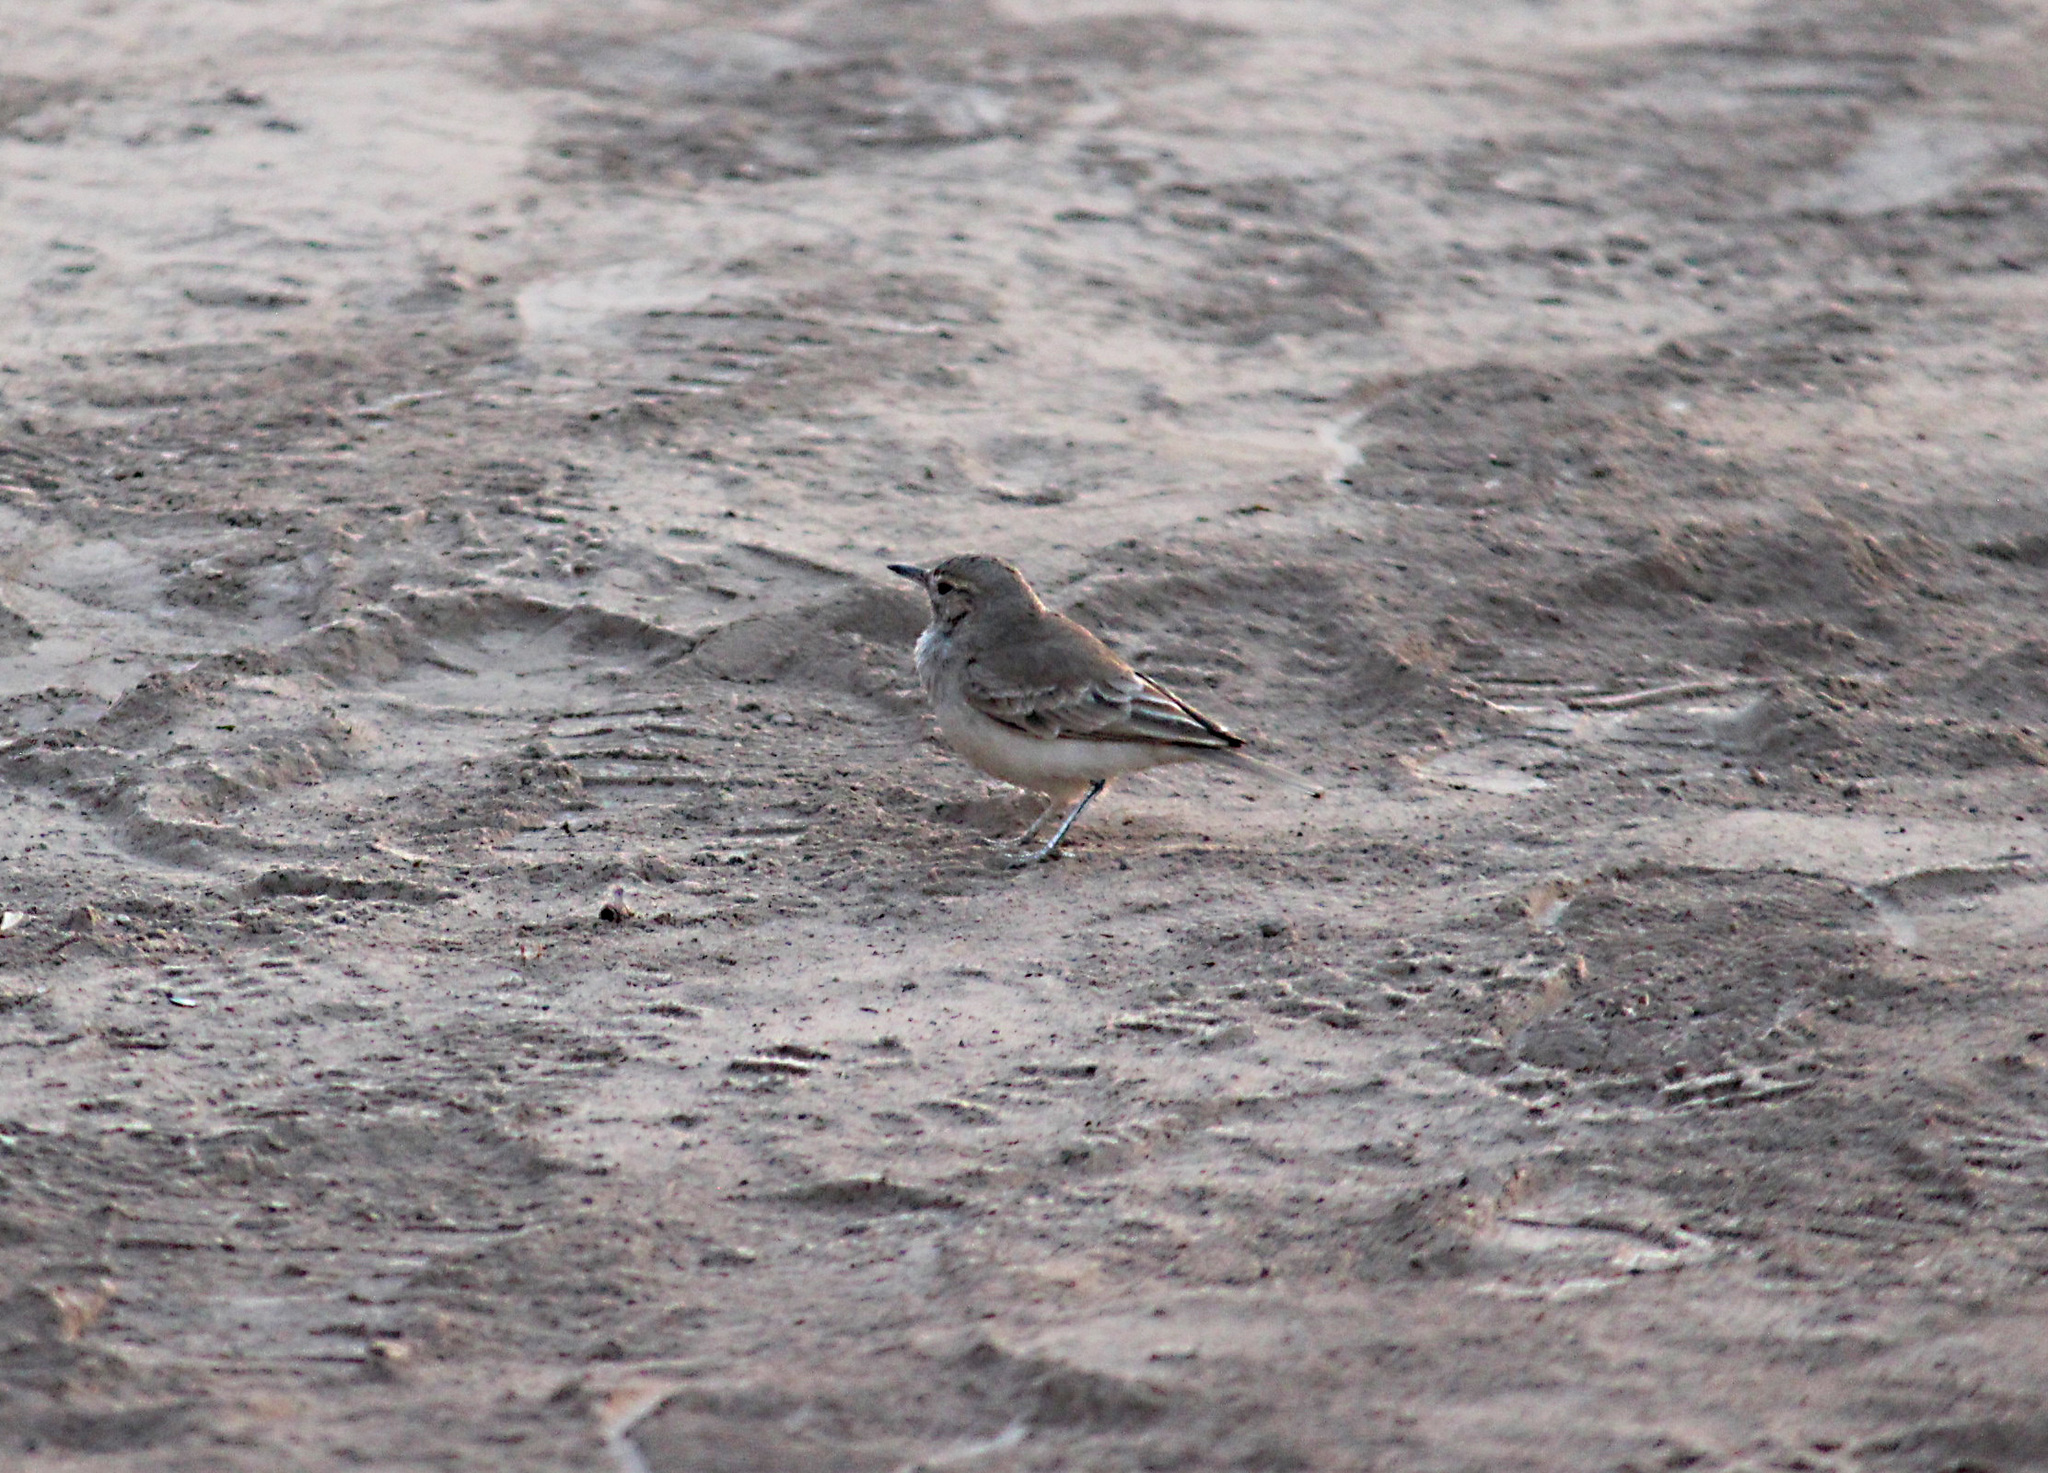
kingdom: Animalia
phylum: Chordata
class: Aves
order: Passeriformes
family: Furnariidae
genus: Geositta
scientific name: Geositta peruviana
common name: Coastal miner
